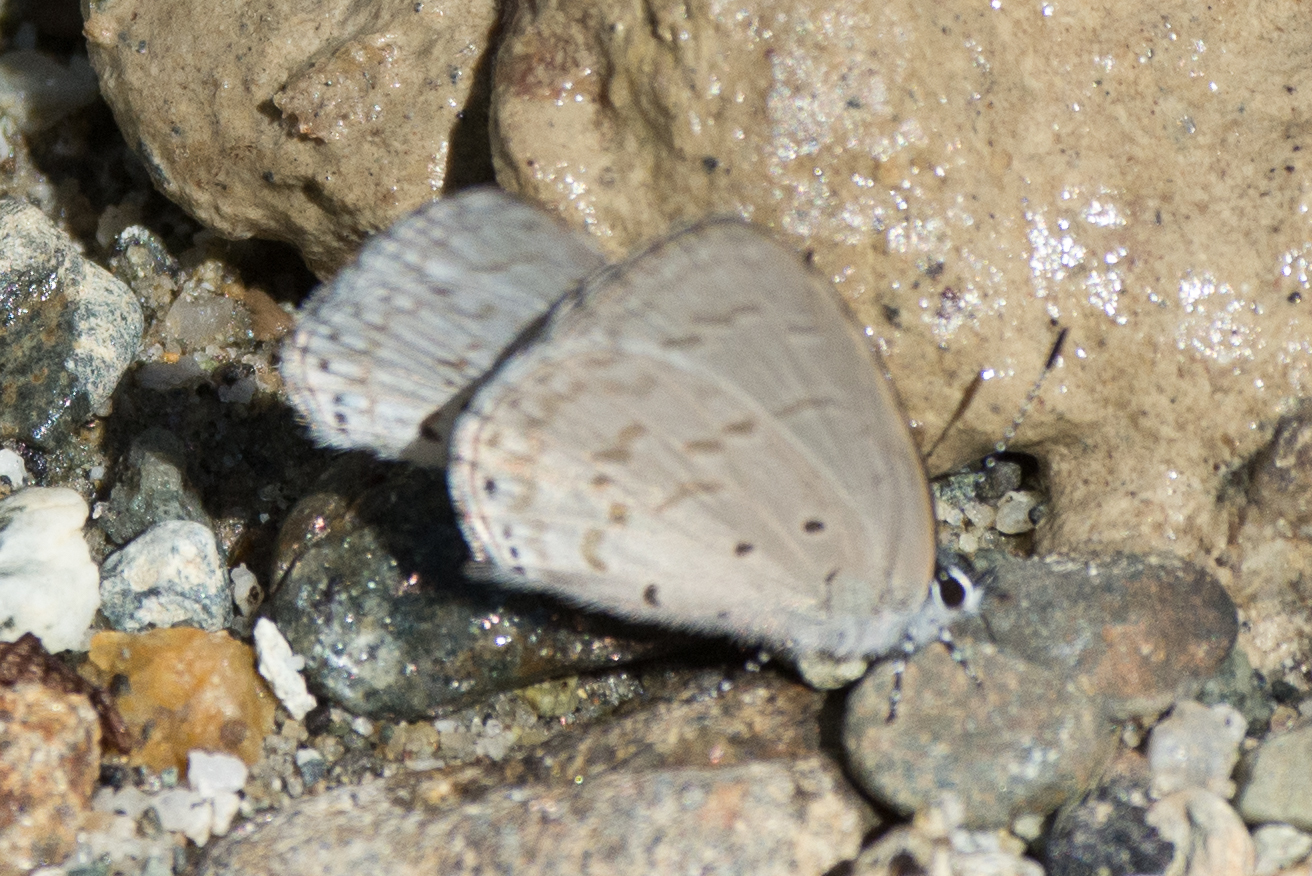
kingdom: Animalia
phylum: Arthropoda
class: Insecta
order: Lepidoptera
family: Lycaenidae
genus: Udara
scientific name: Udara
